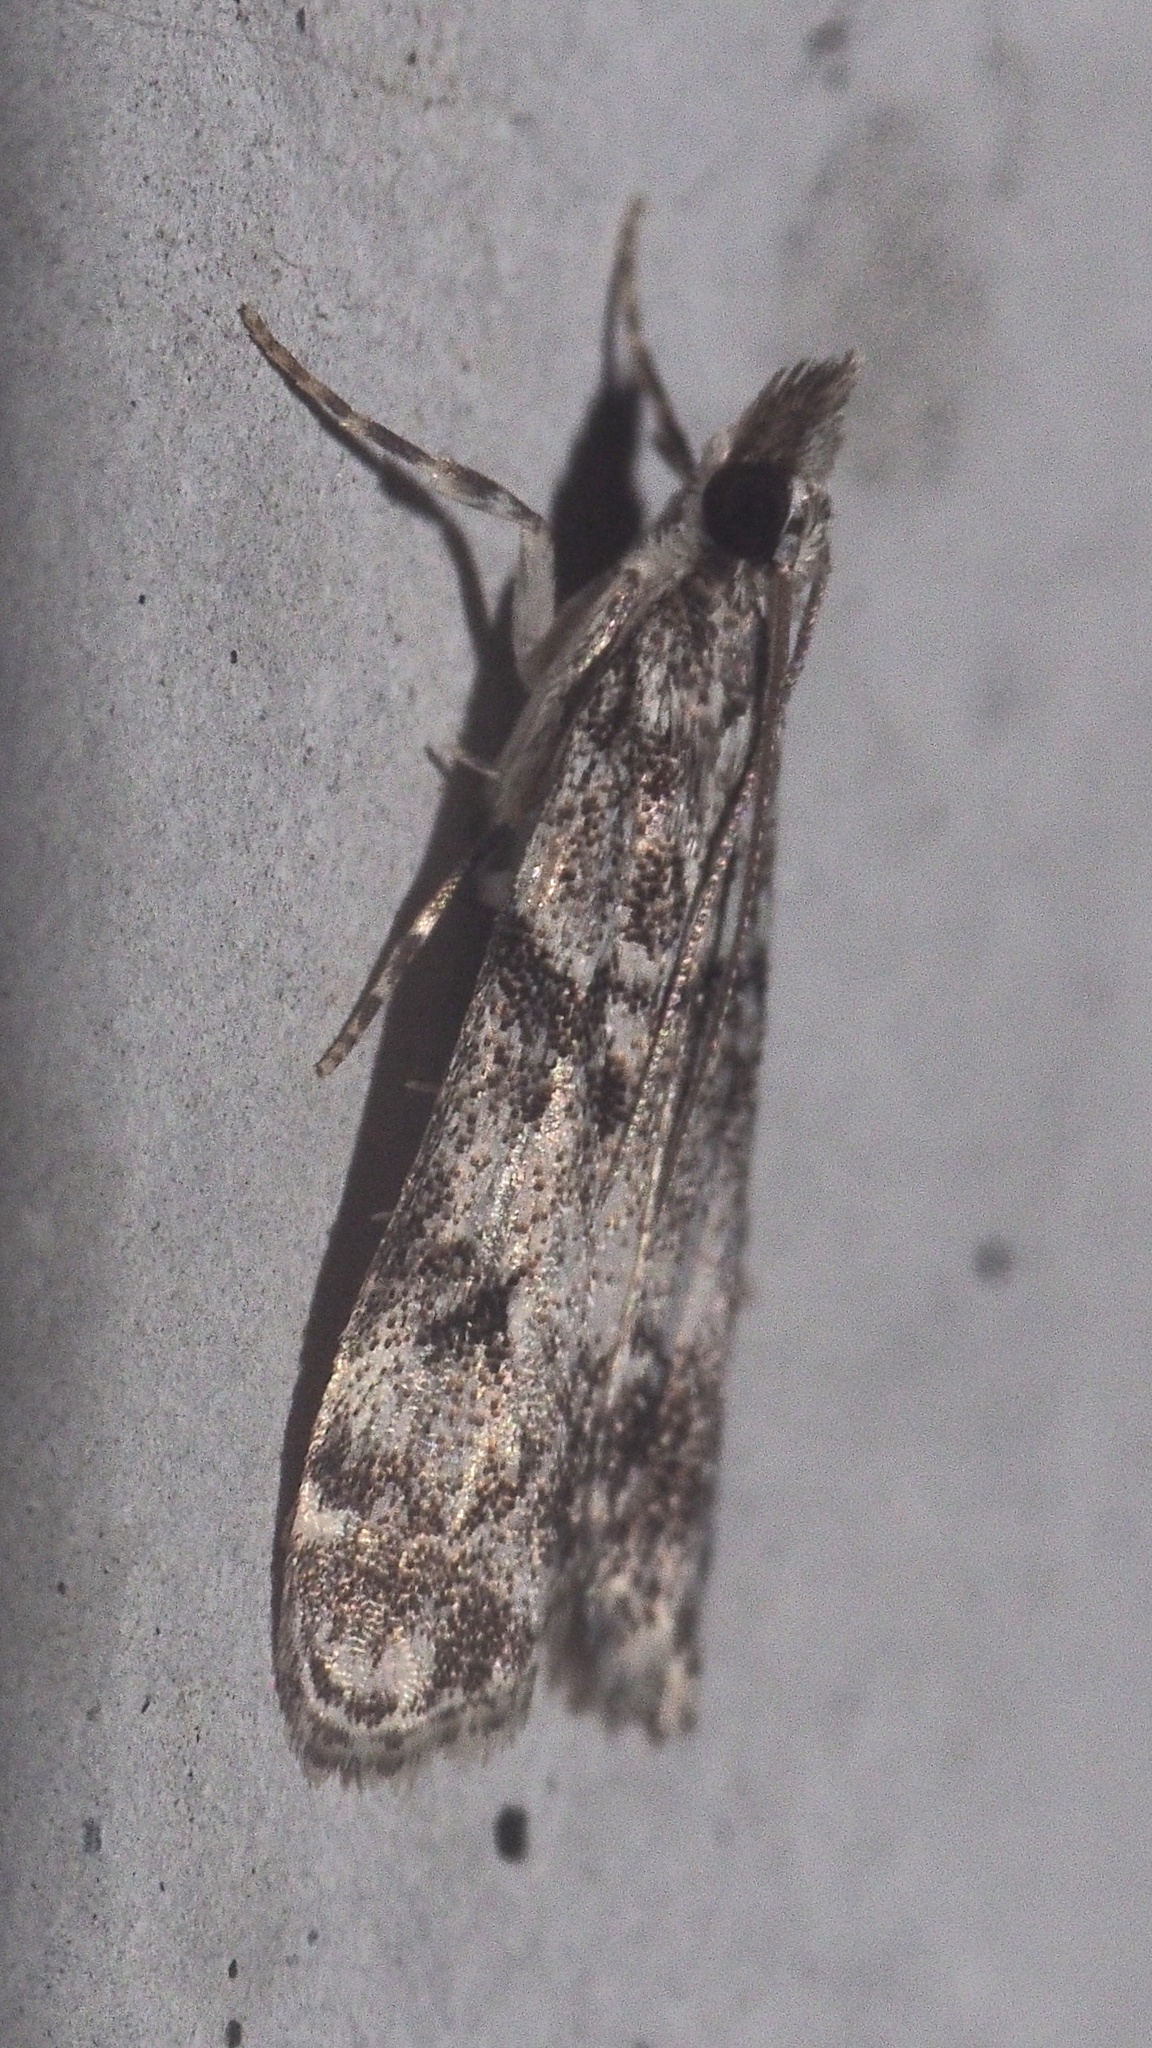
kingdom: Animalia
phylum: Arthropoda
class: Insecta
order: Lepidoptera
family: Crambidae
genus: Eudonia
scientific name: Eudonia lacustrata
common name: Little grey
